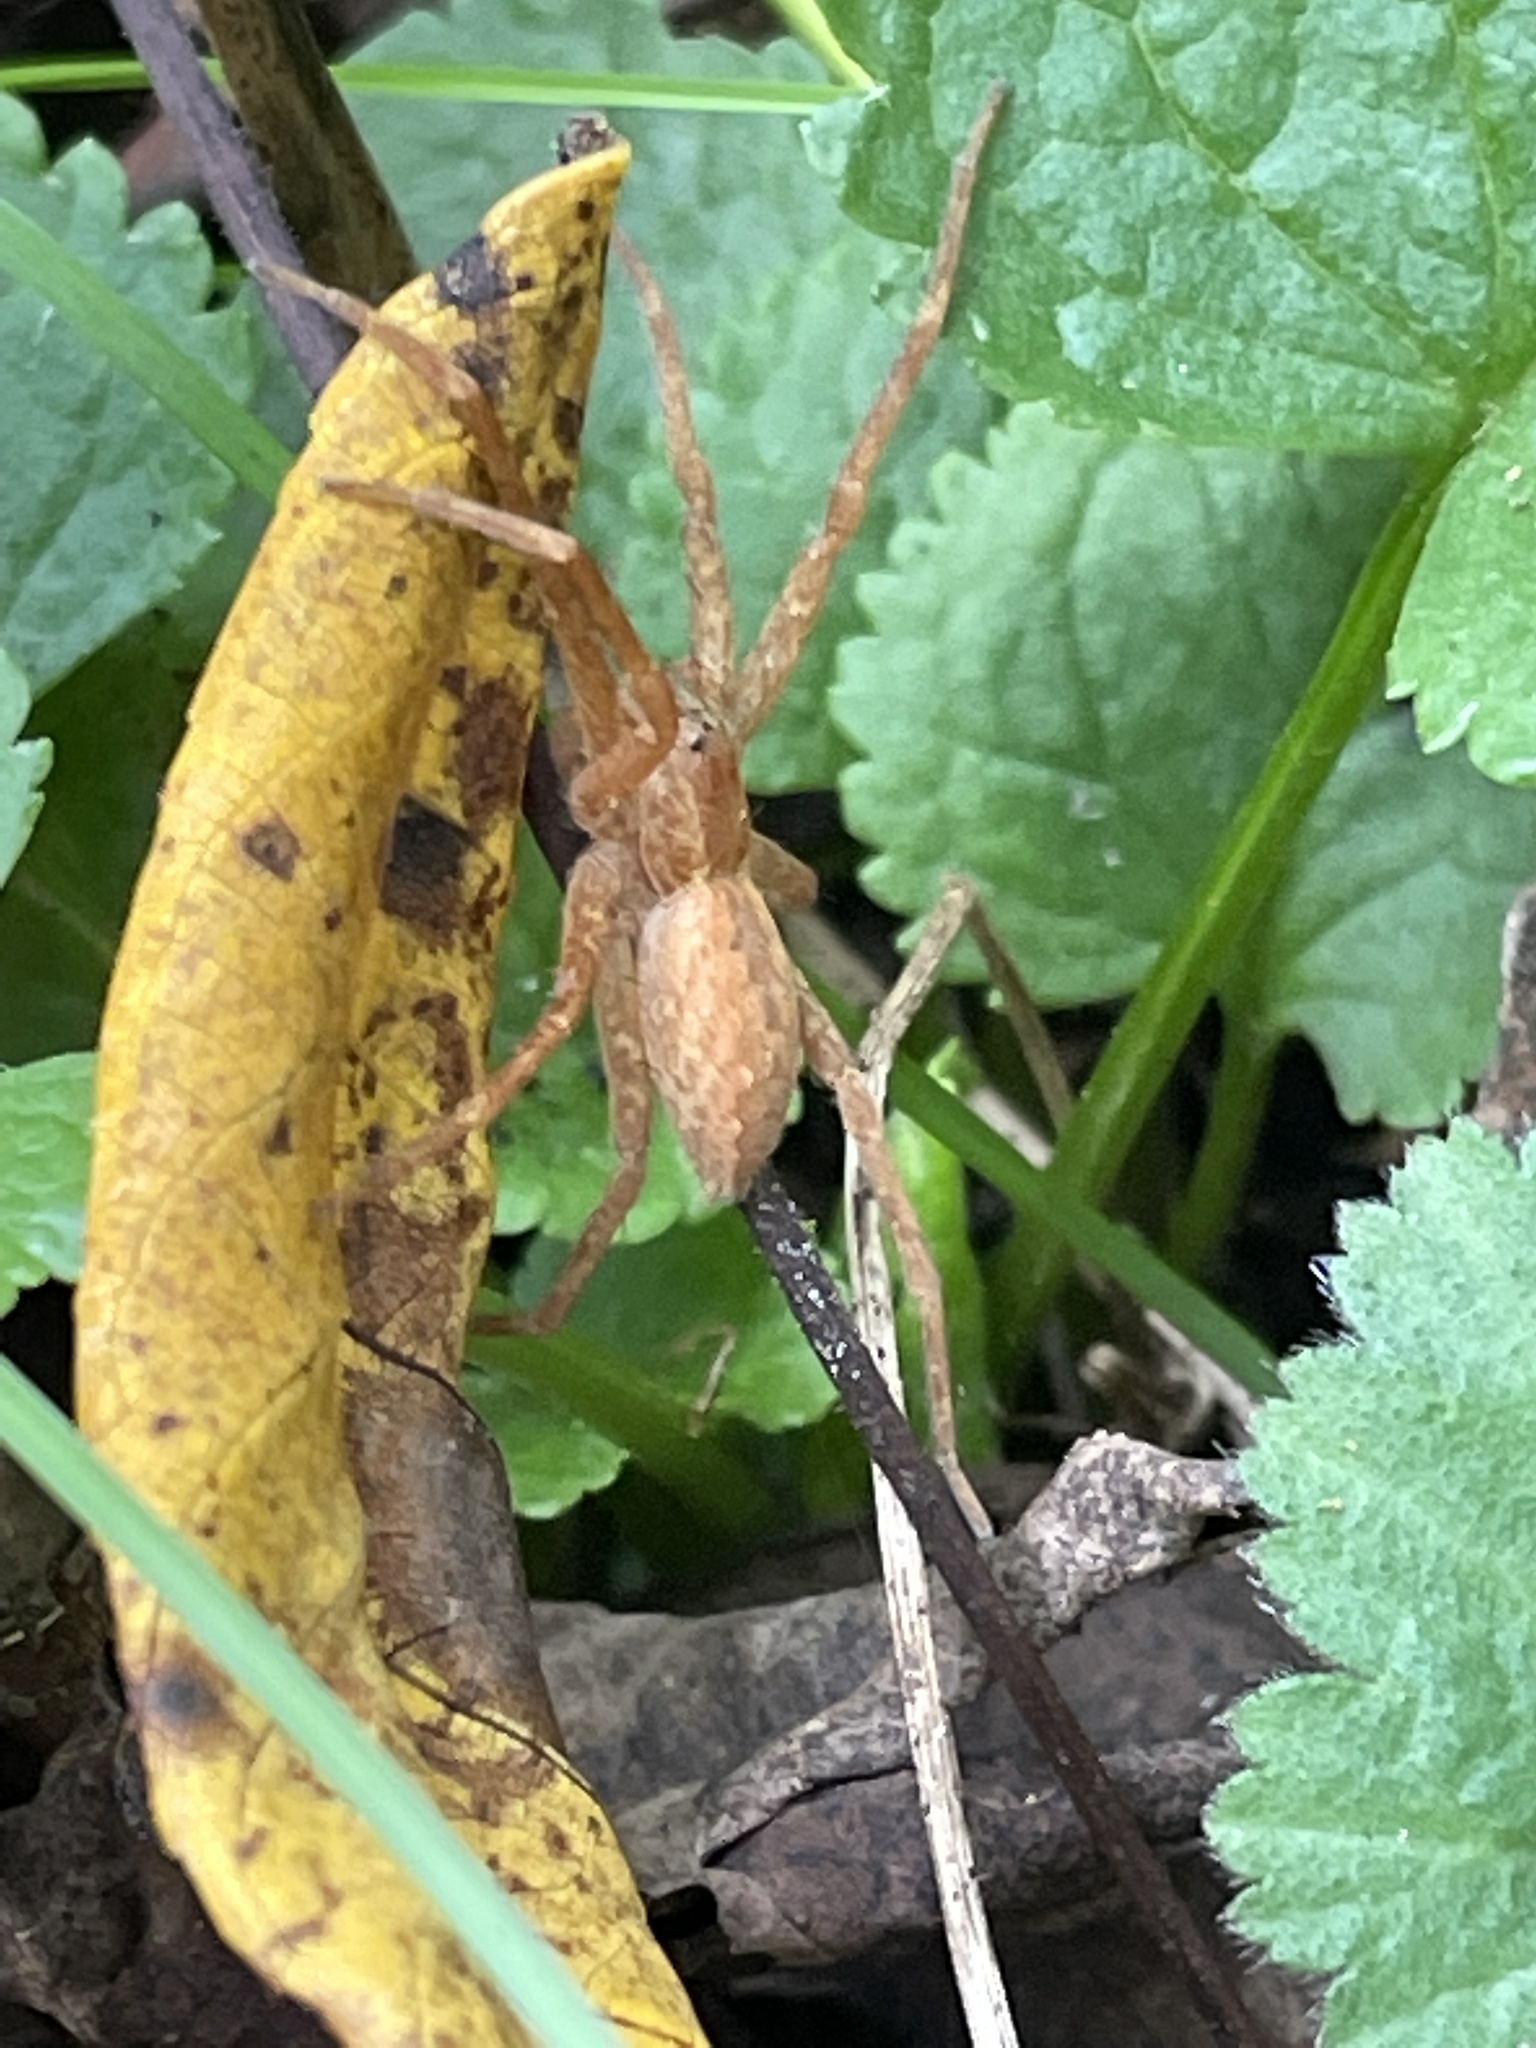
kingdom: Animalia
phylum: Arthropoda
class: Arachnida
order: Araneae
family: Pisauridae
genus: Pisaurina
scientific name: Pisaurina mira
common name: American nursery web spider
